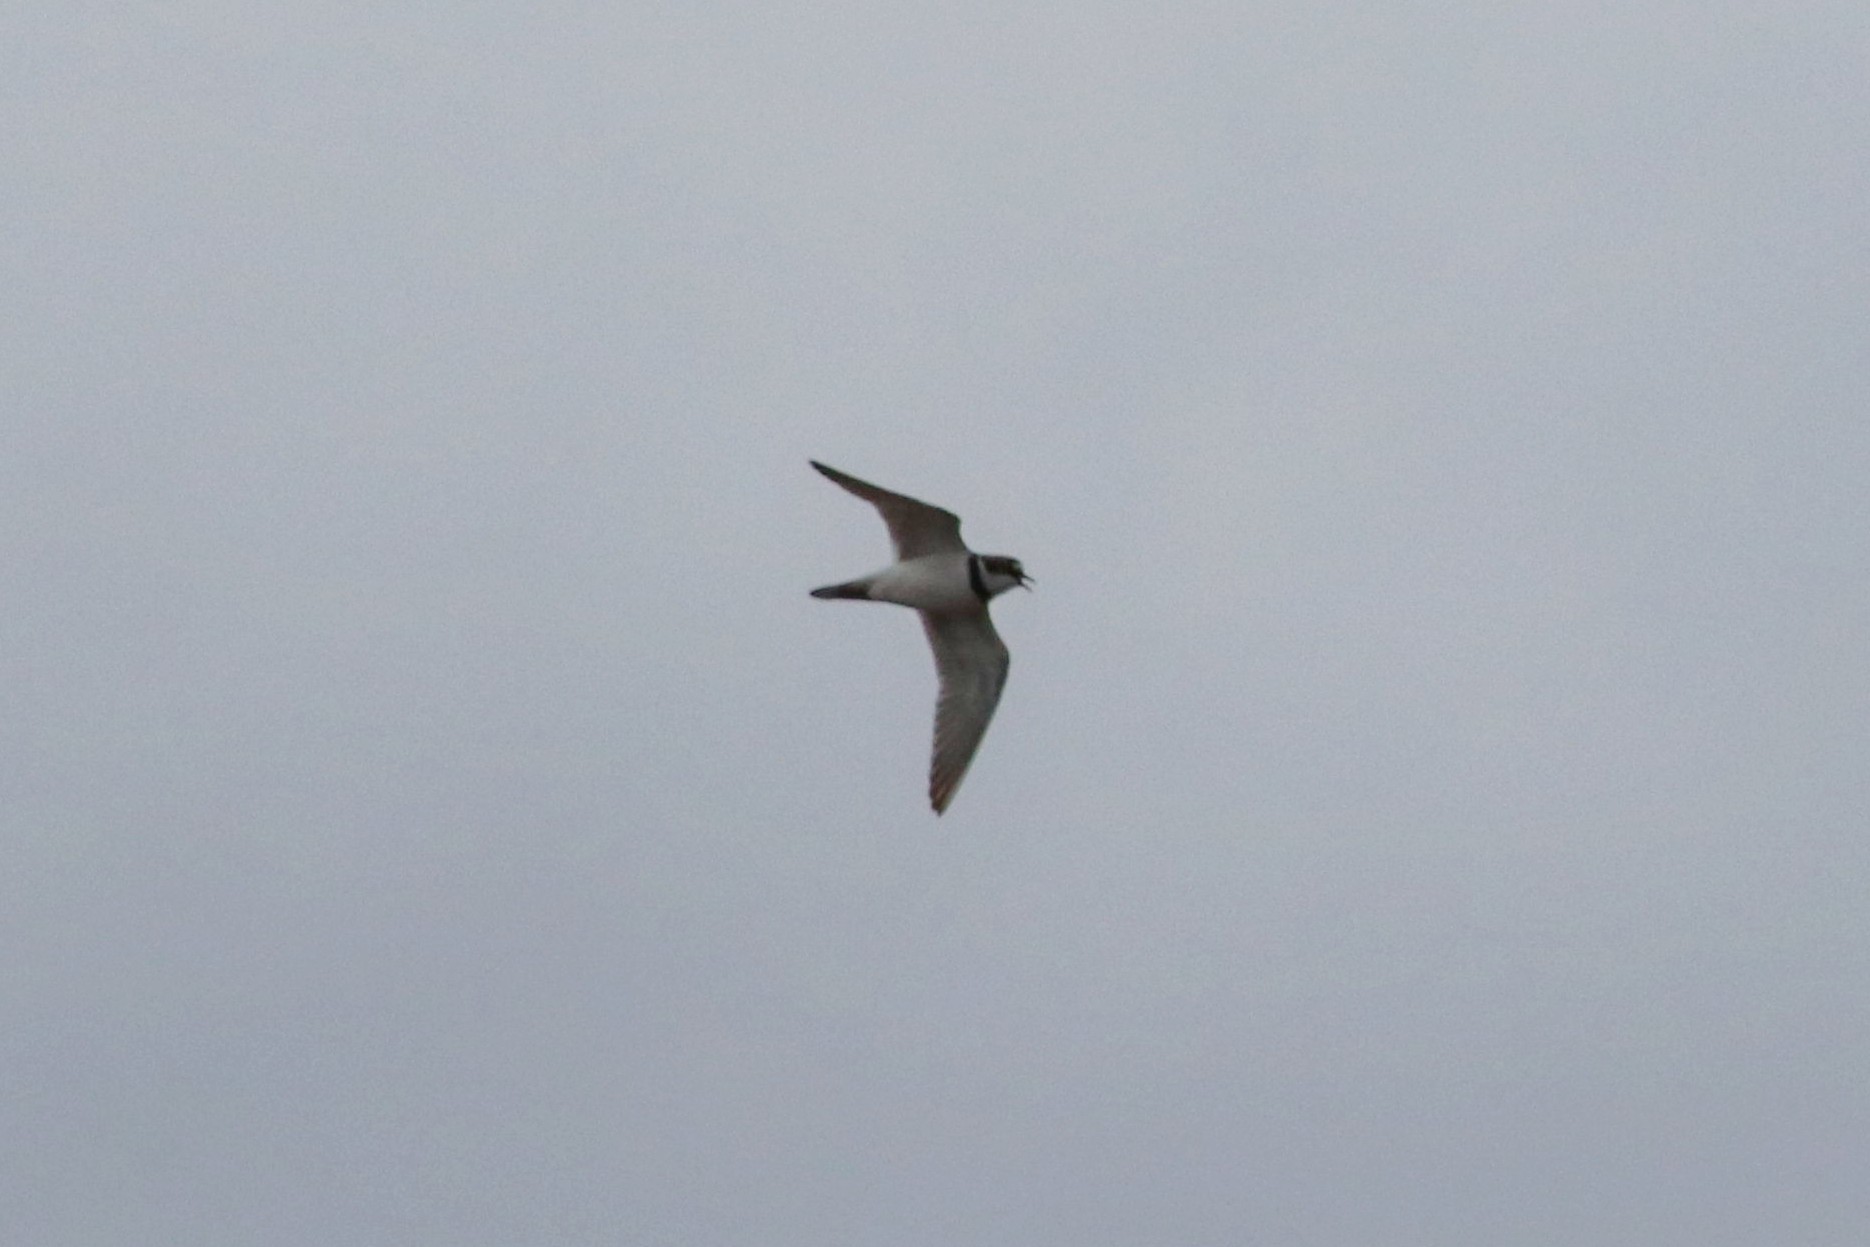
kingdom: Animalia
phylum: Chordata
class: Aves
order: Charadriiformes
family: Charadriidae
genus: Charadrius
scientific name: Charadrius dubius
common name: Little ringed plover
